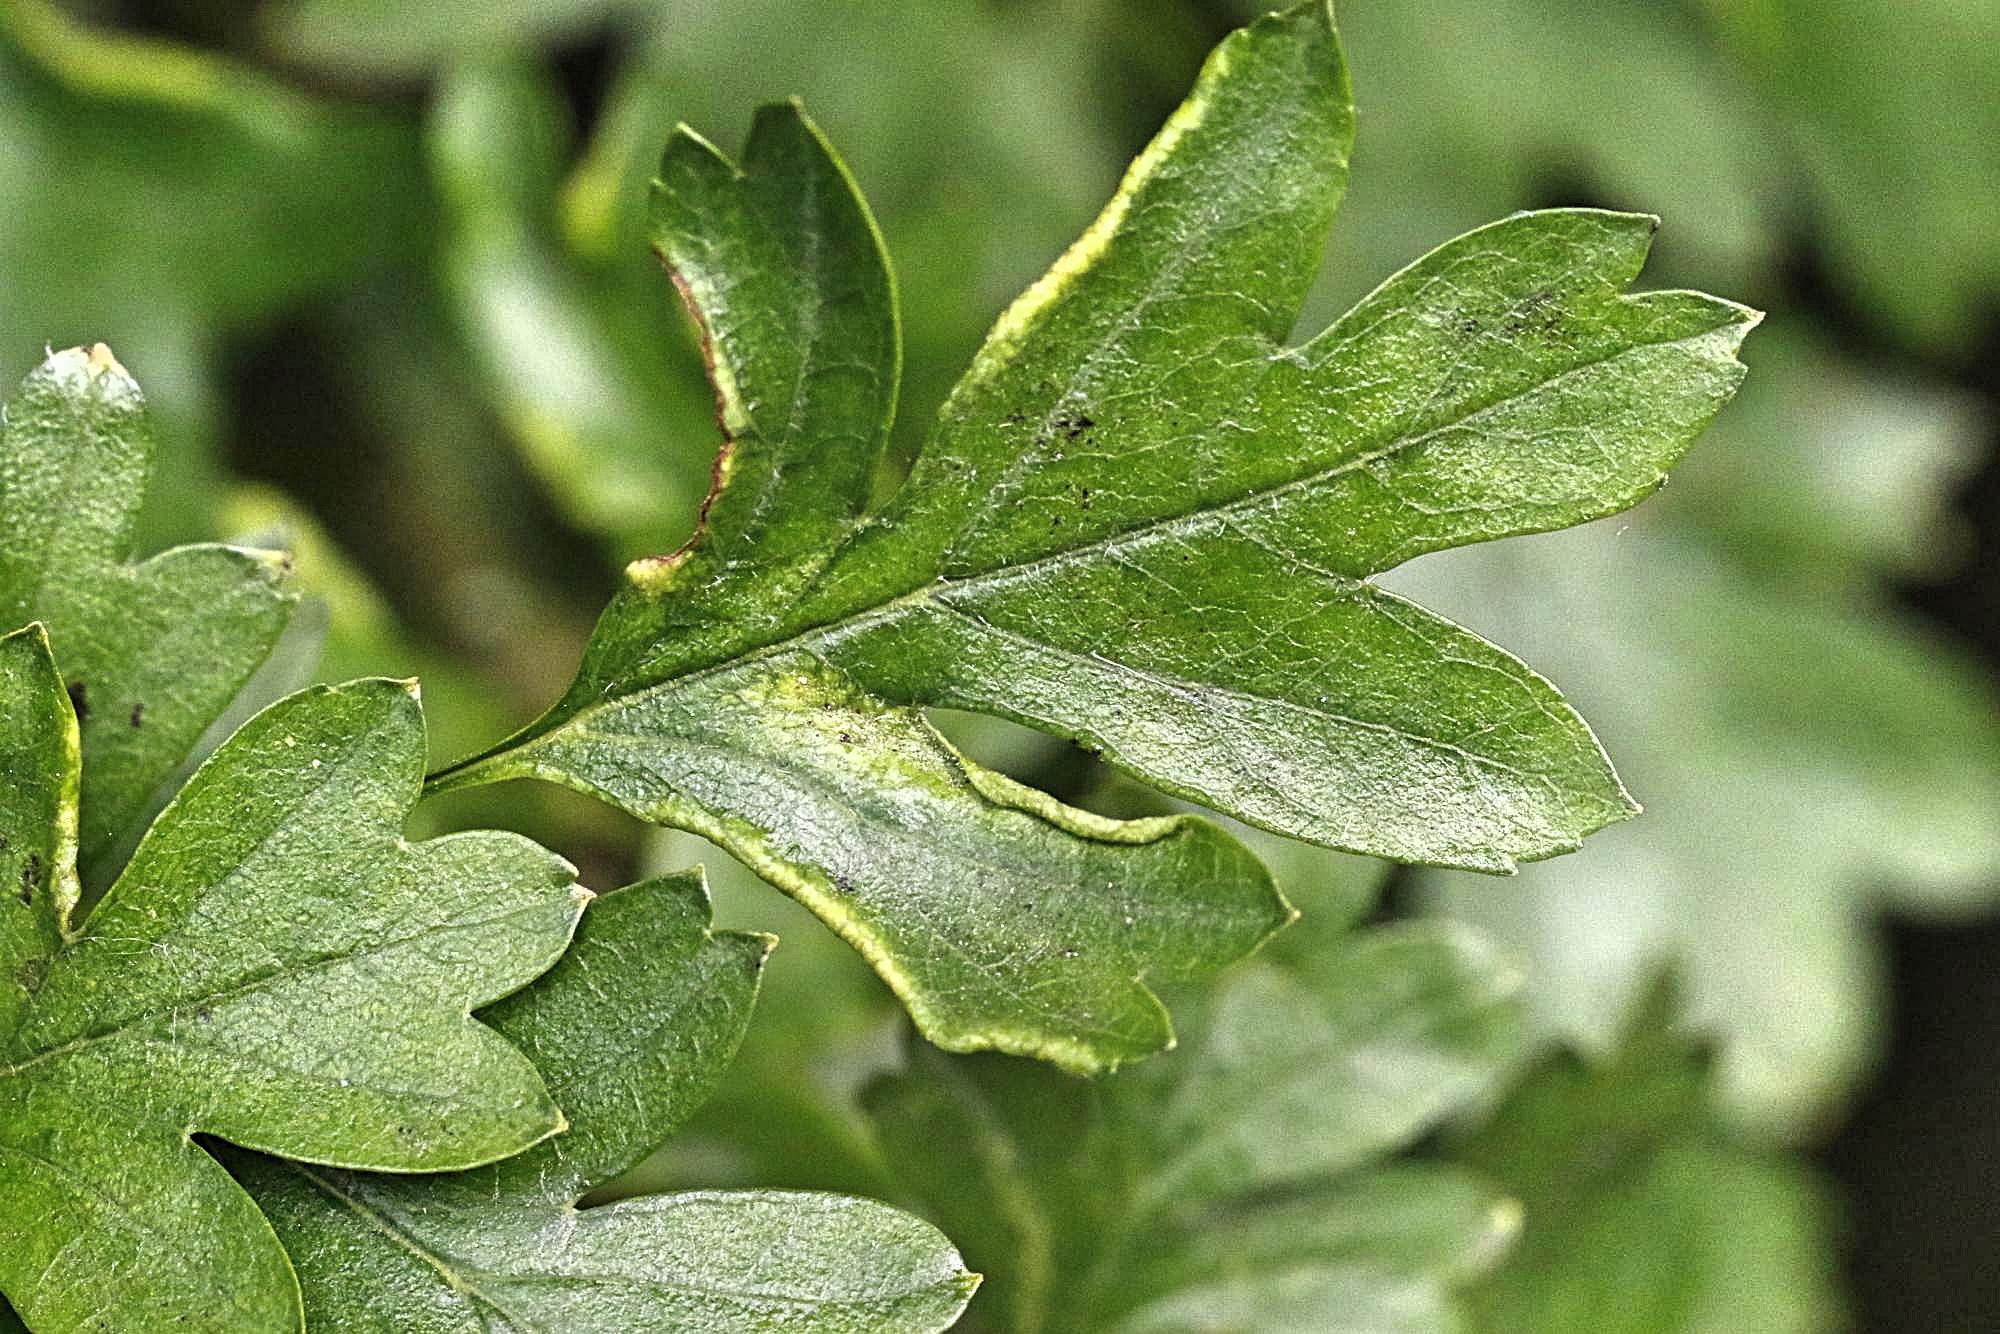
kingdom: Animalia
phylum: Arthropoda
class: Arachnida
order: Trombidiformes
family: Eriophyidae
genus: Phyllocoptes
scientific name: Phyllocoptes goniothorax
